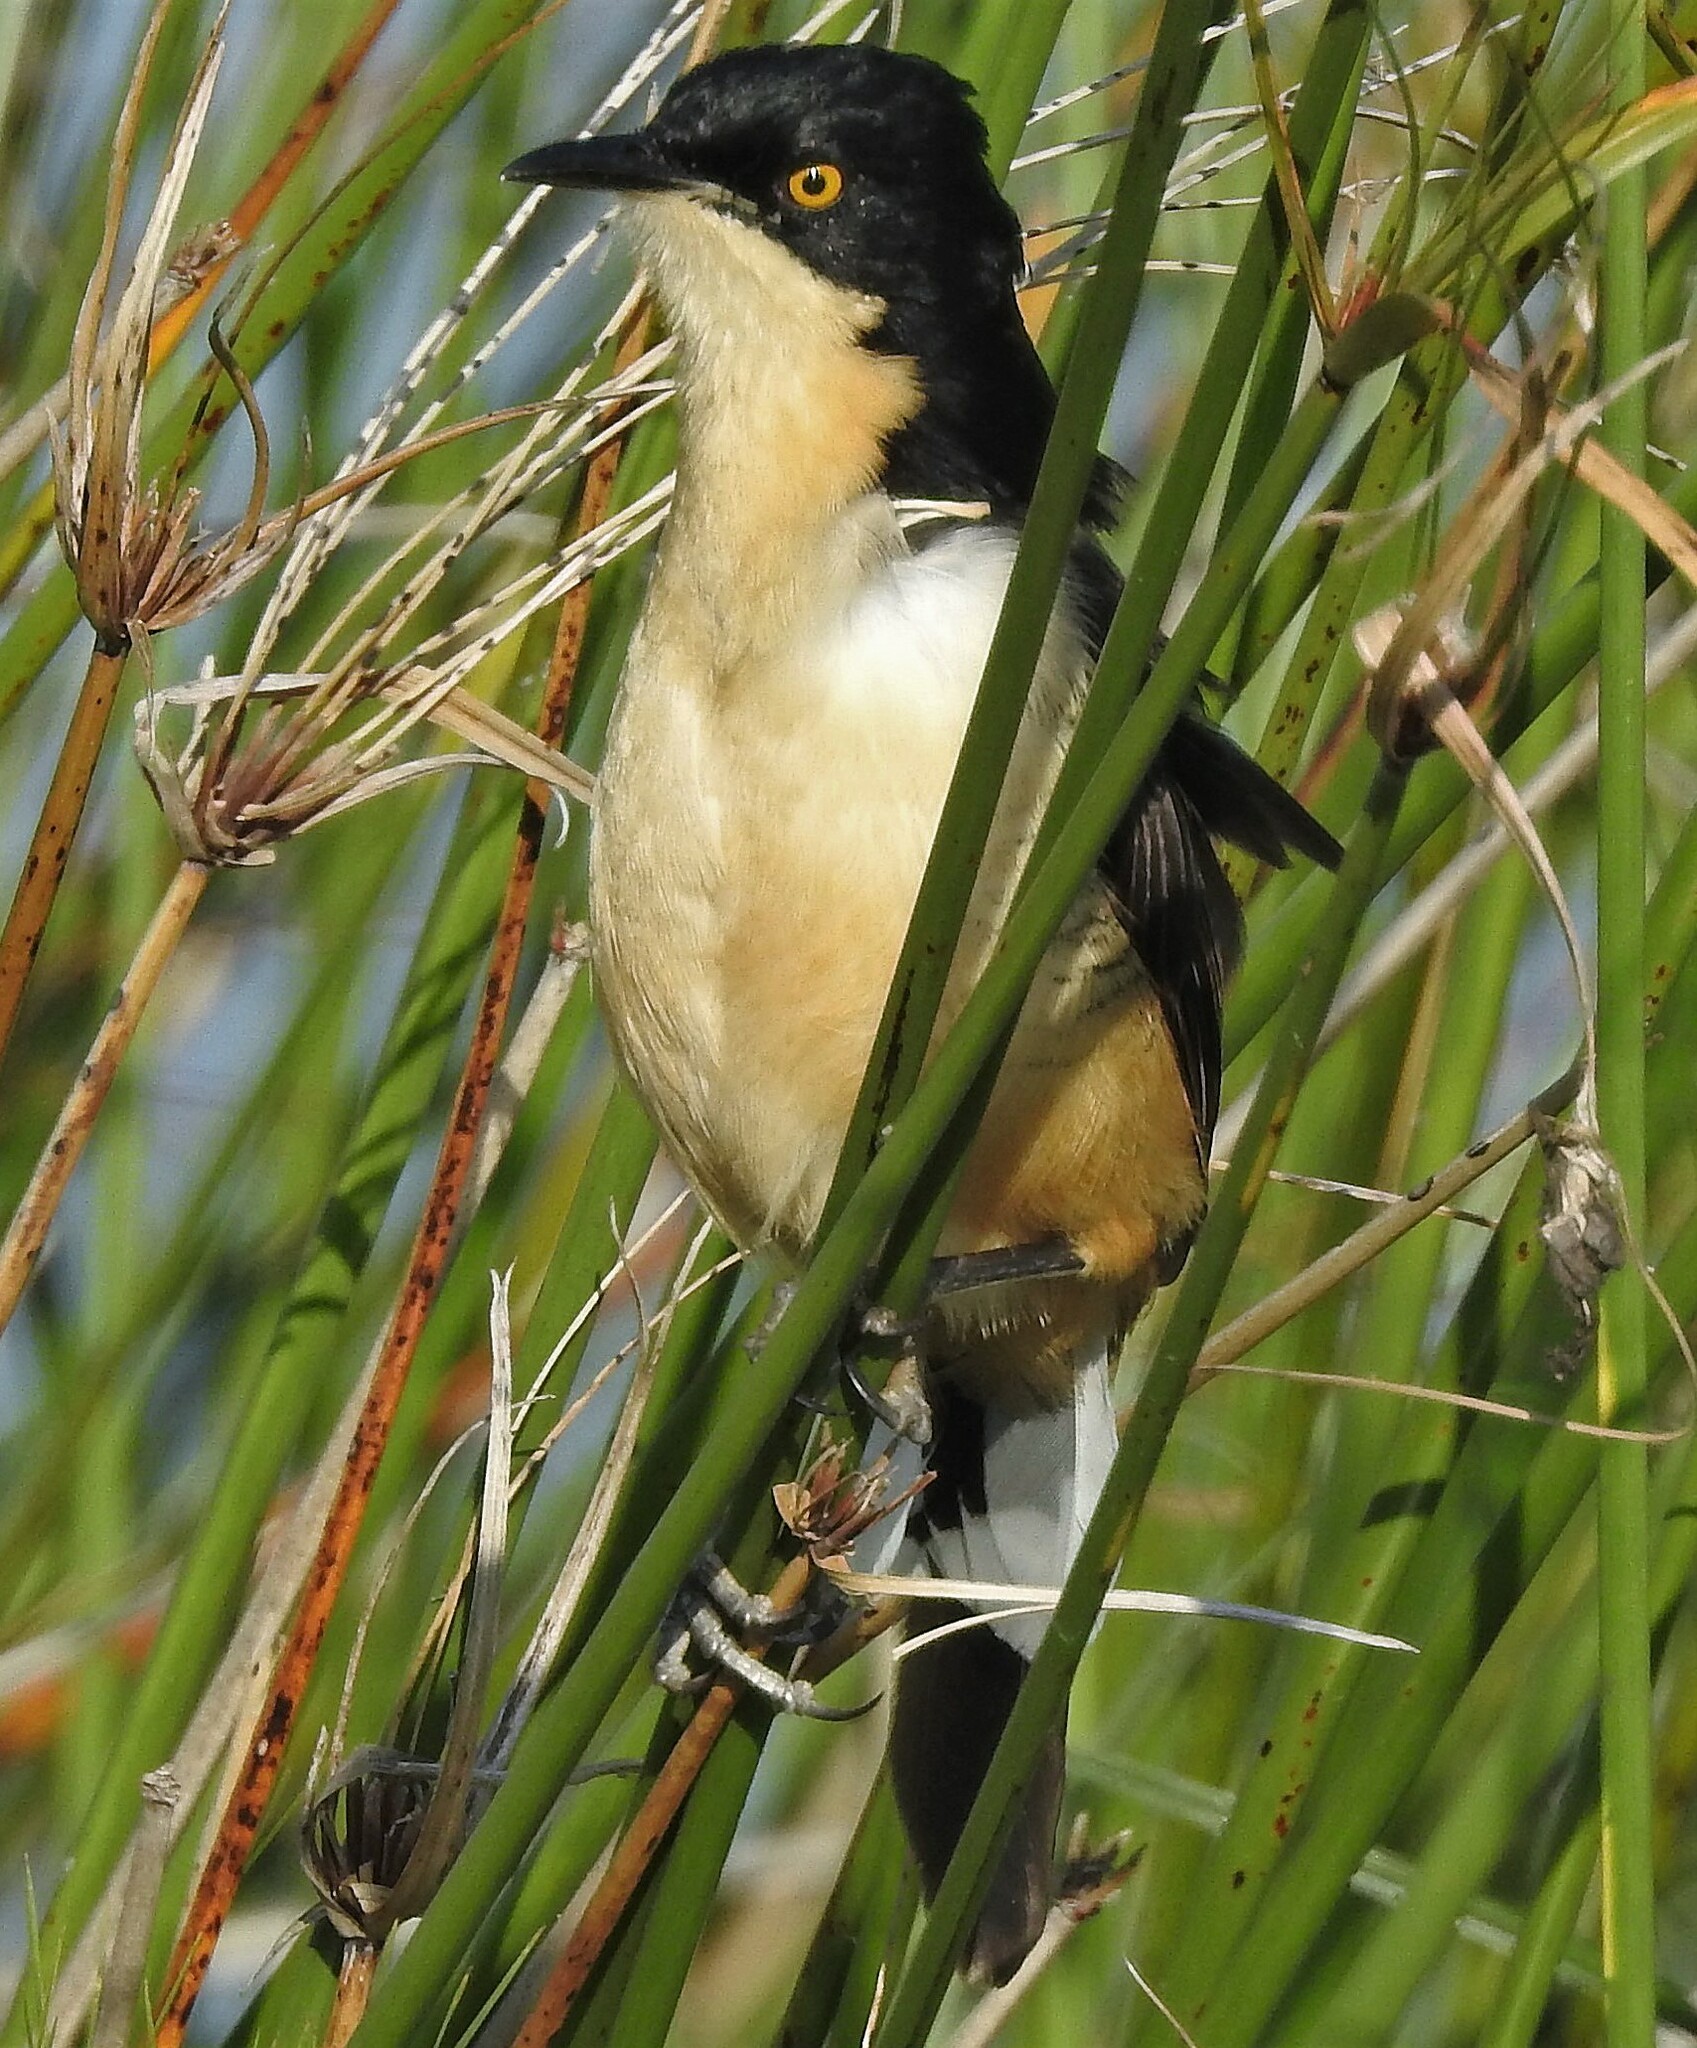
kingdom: Animalia
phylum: Chordata
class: Aves
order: Passeriformes
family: Donacobiidae
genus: Donacobius
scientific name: Donacobius atricapilla
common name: Black-capped donacobius
